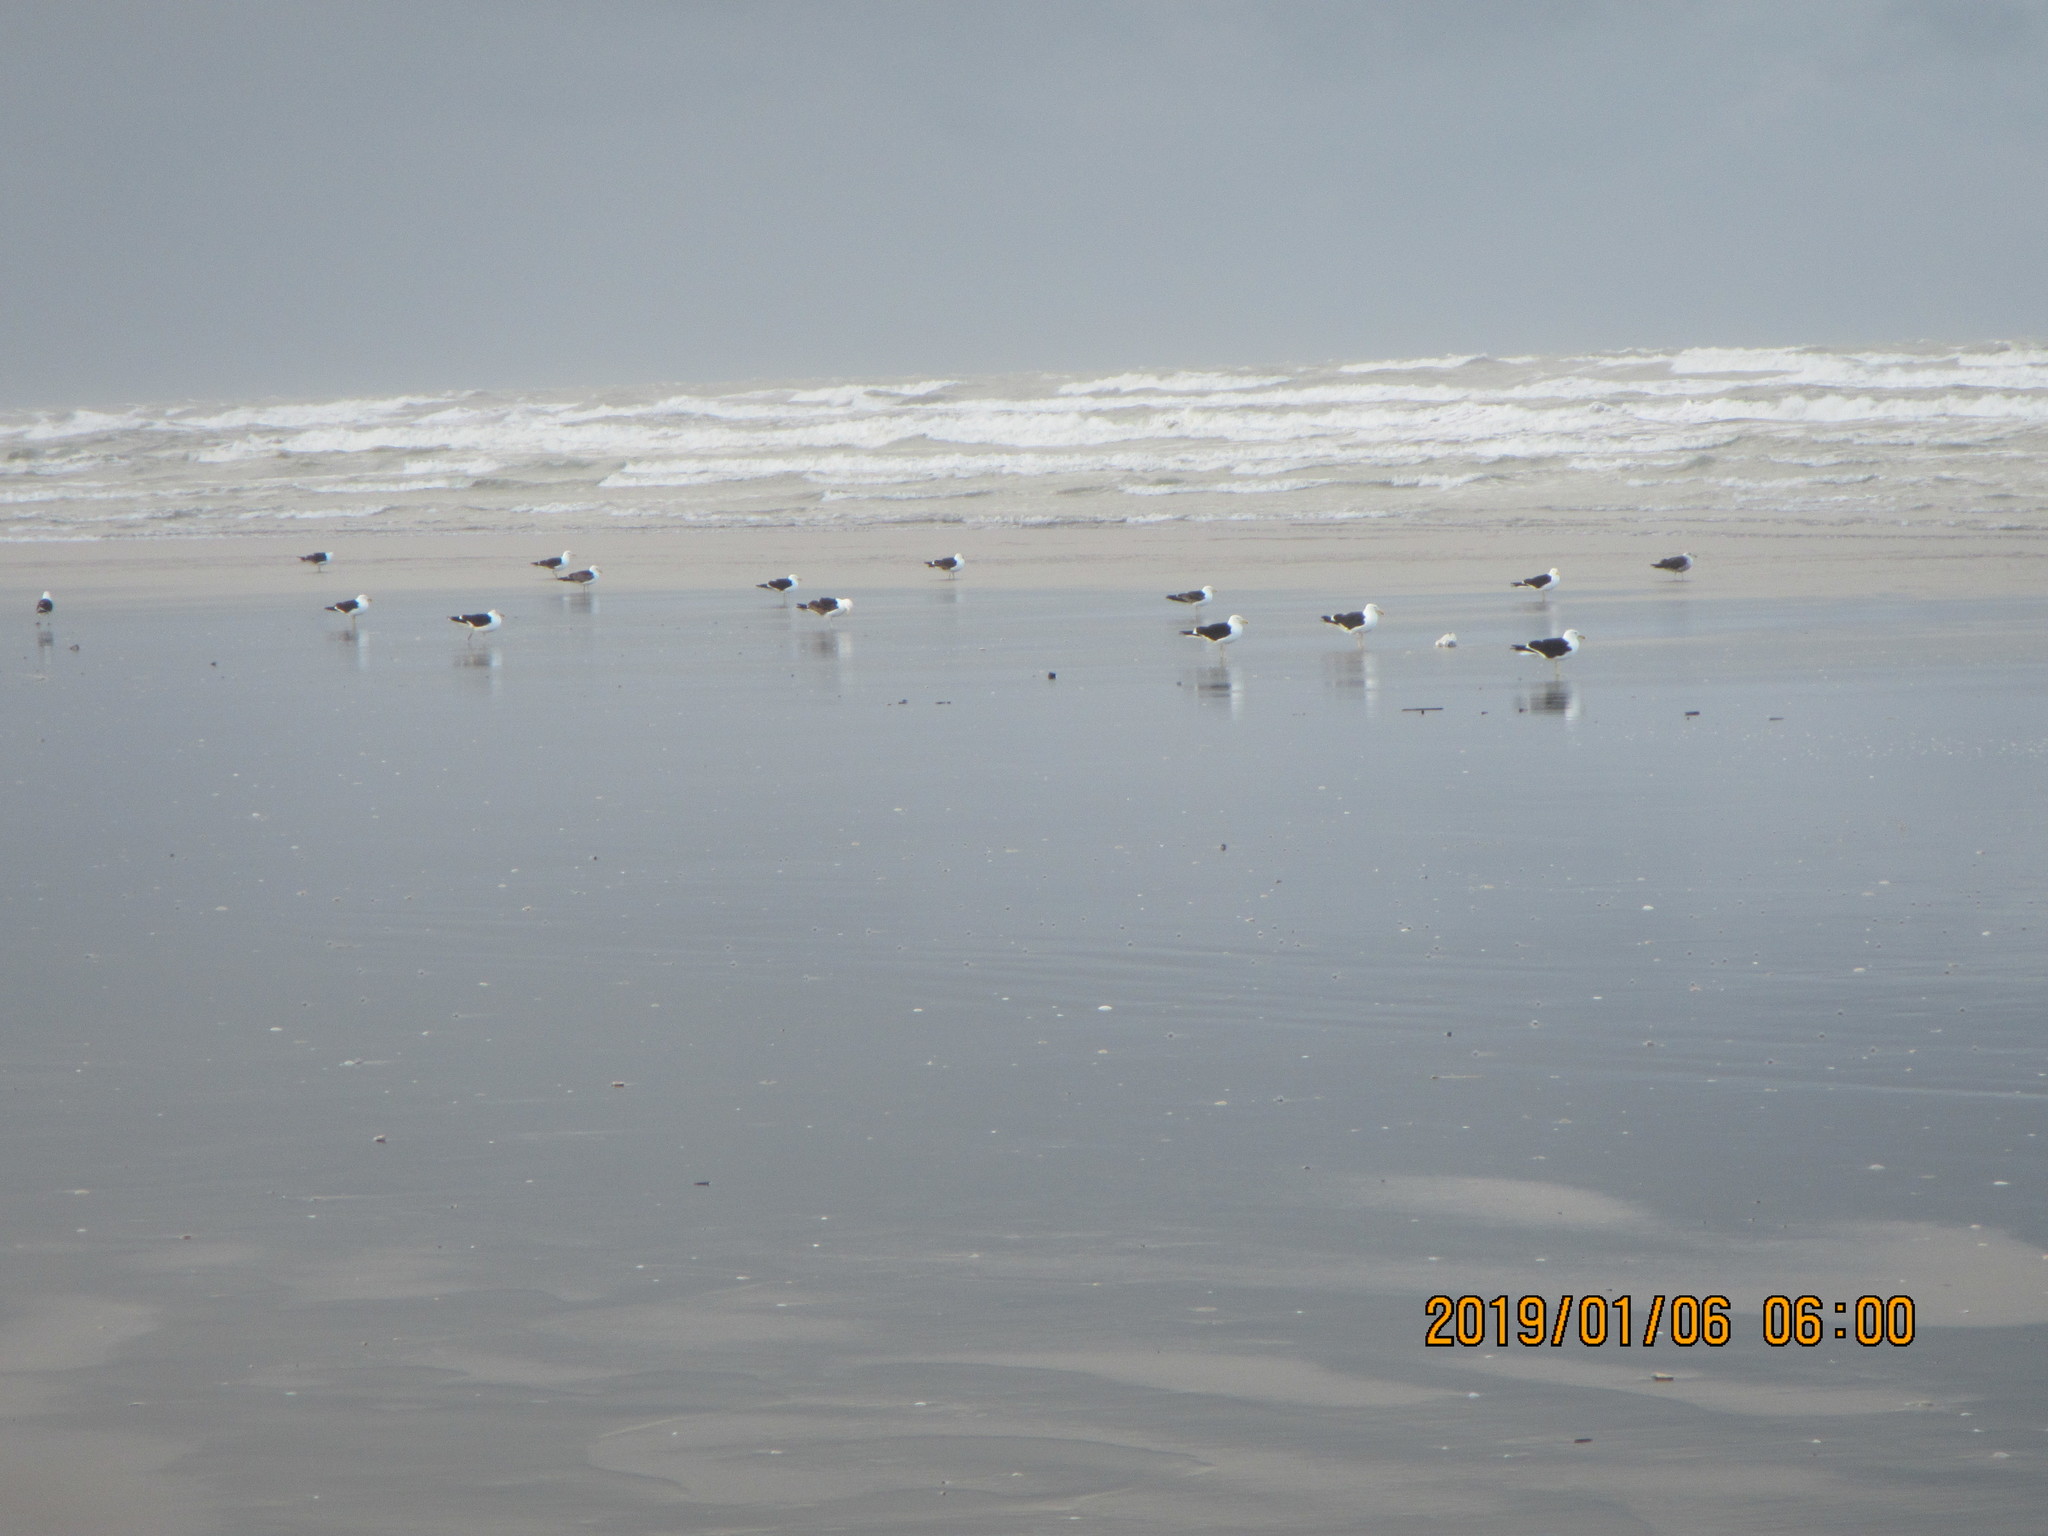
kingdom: Animalia
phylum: Chordata
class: Aves
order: Charadriiformes
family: Laridae
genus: Larus
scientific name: Larus dominicanus
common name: Kelp gull
